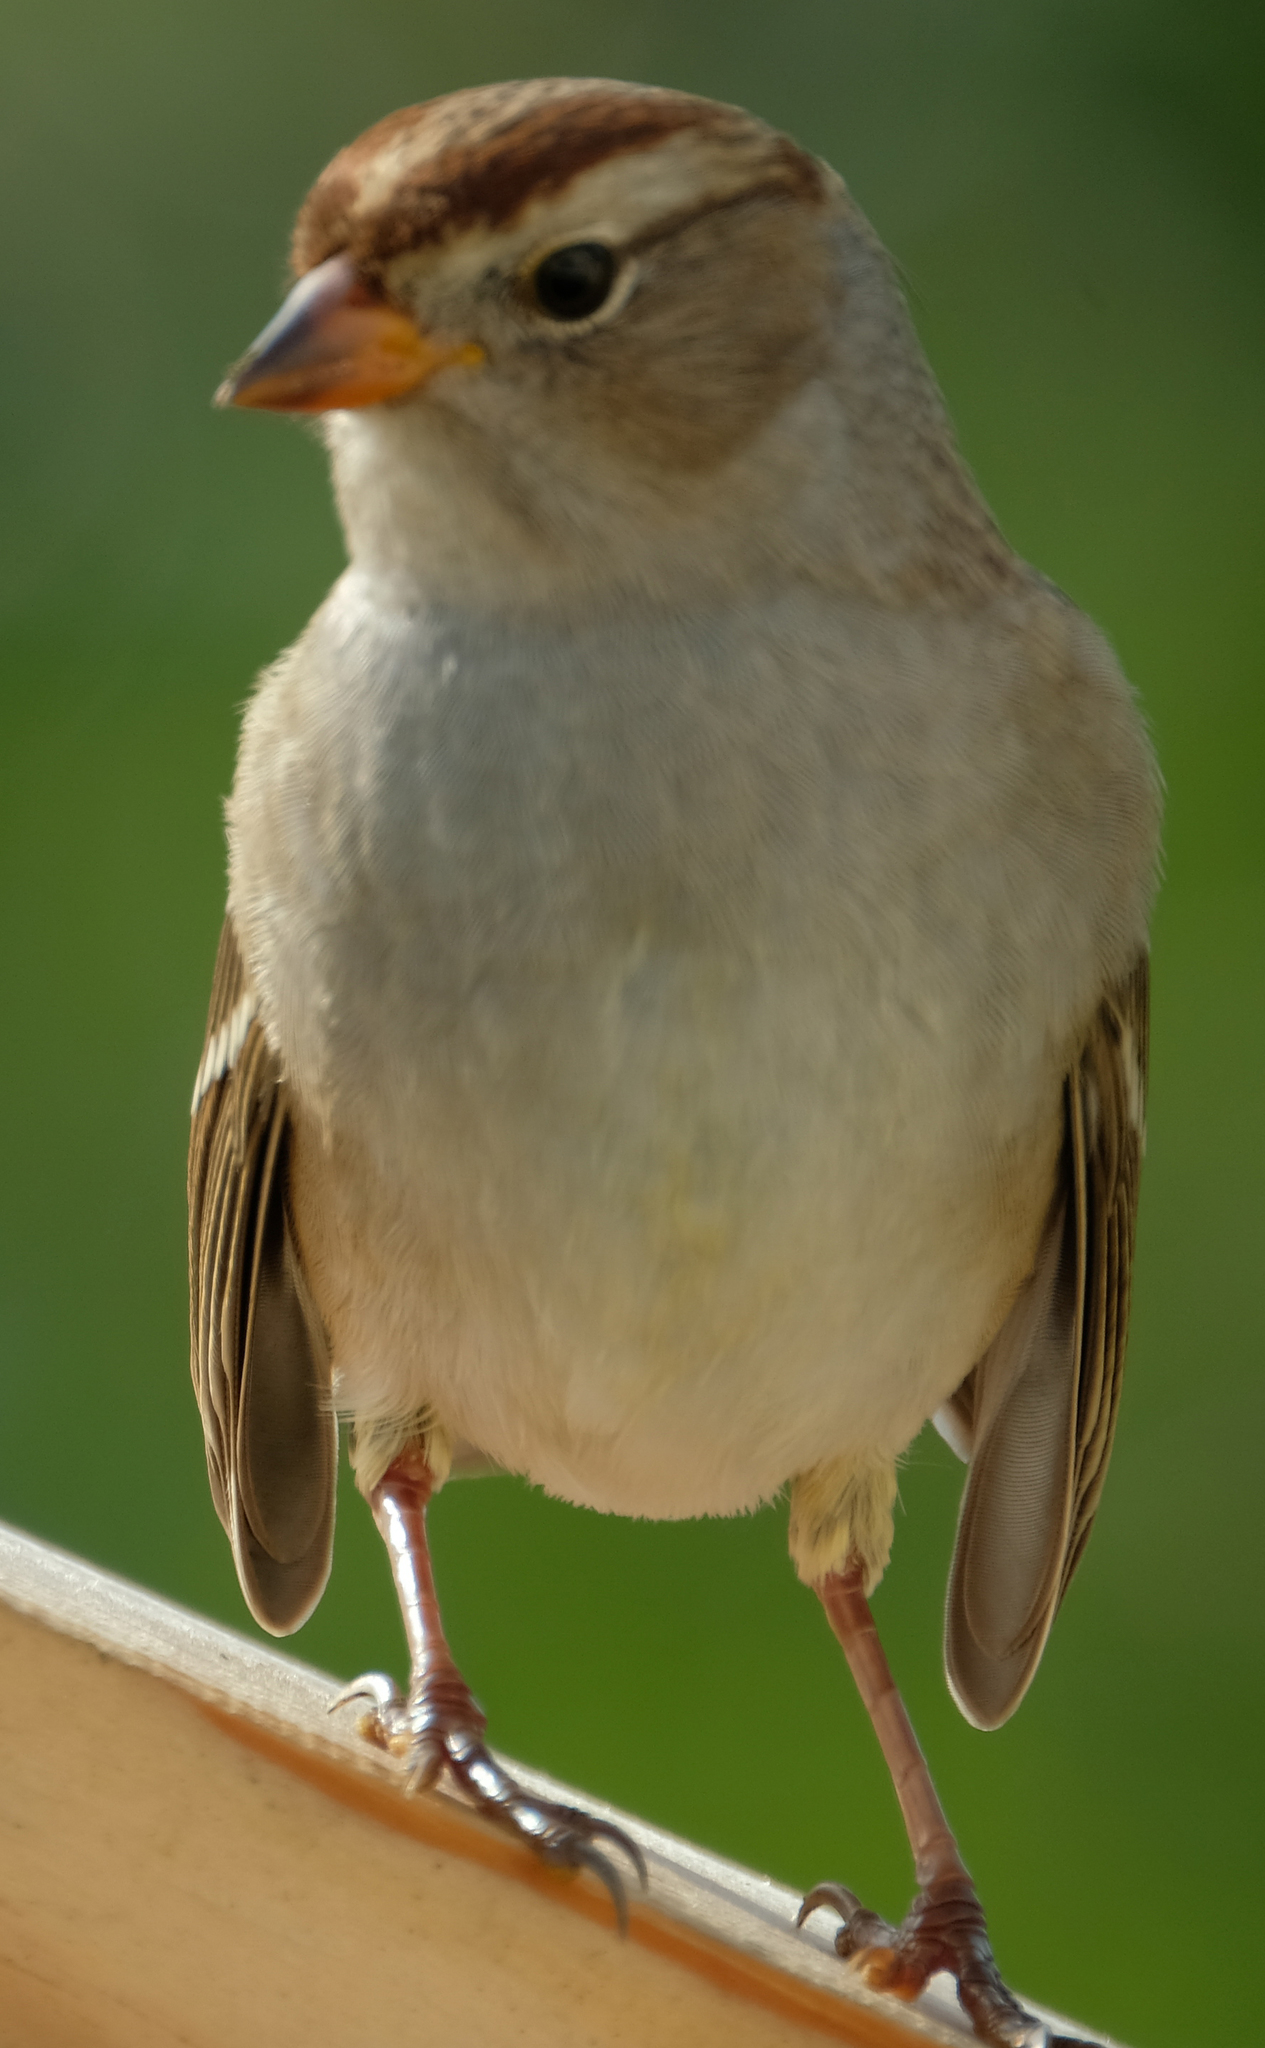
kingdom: Animalia
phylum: Chordata
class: Aves
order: Passeriformes
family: Passerellidae
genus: Zonotrichia
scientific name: Zonotrichia leucophrys
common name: White-crowned sparrow
